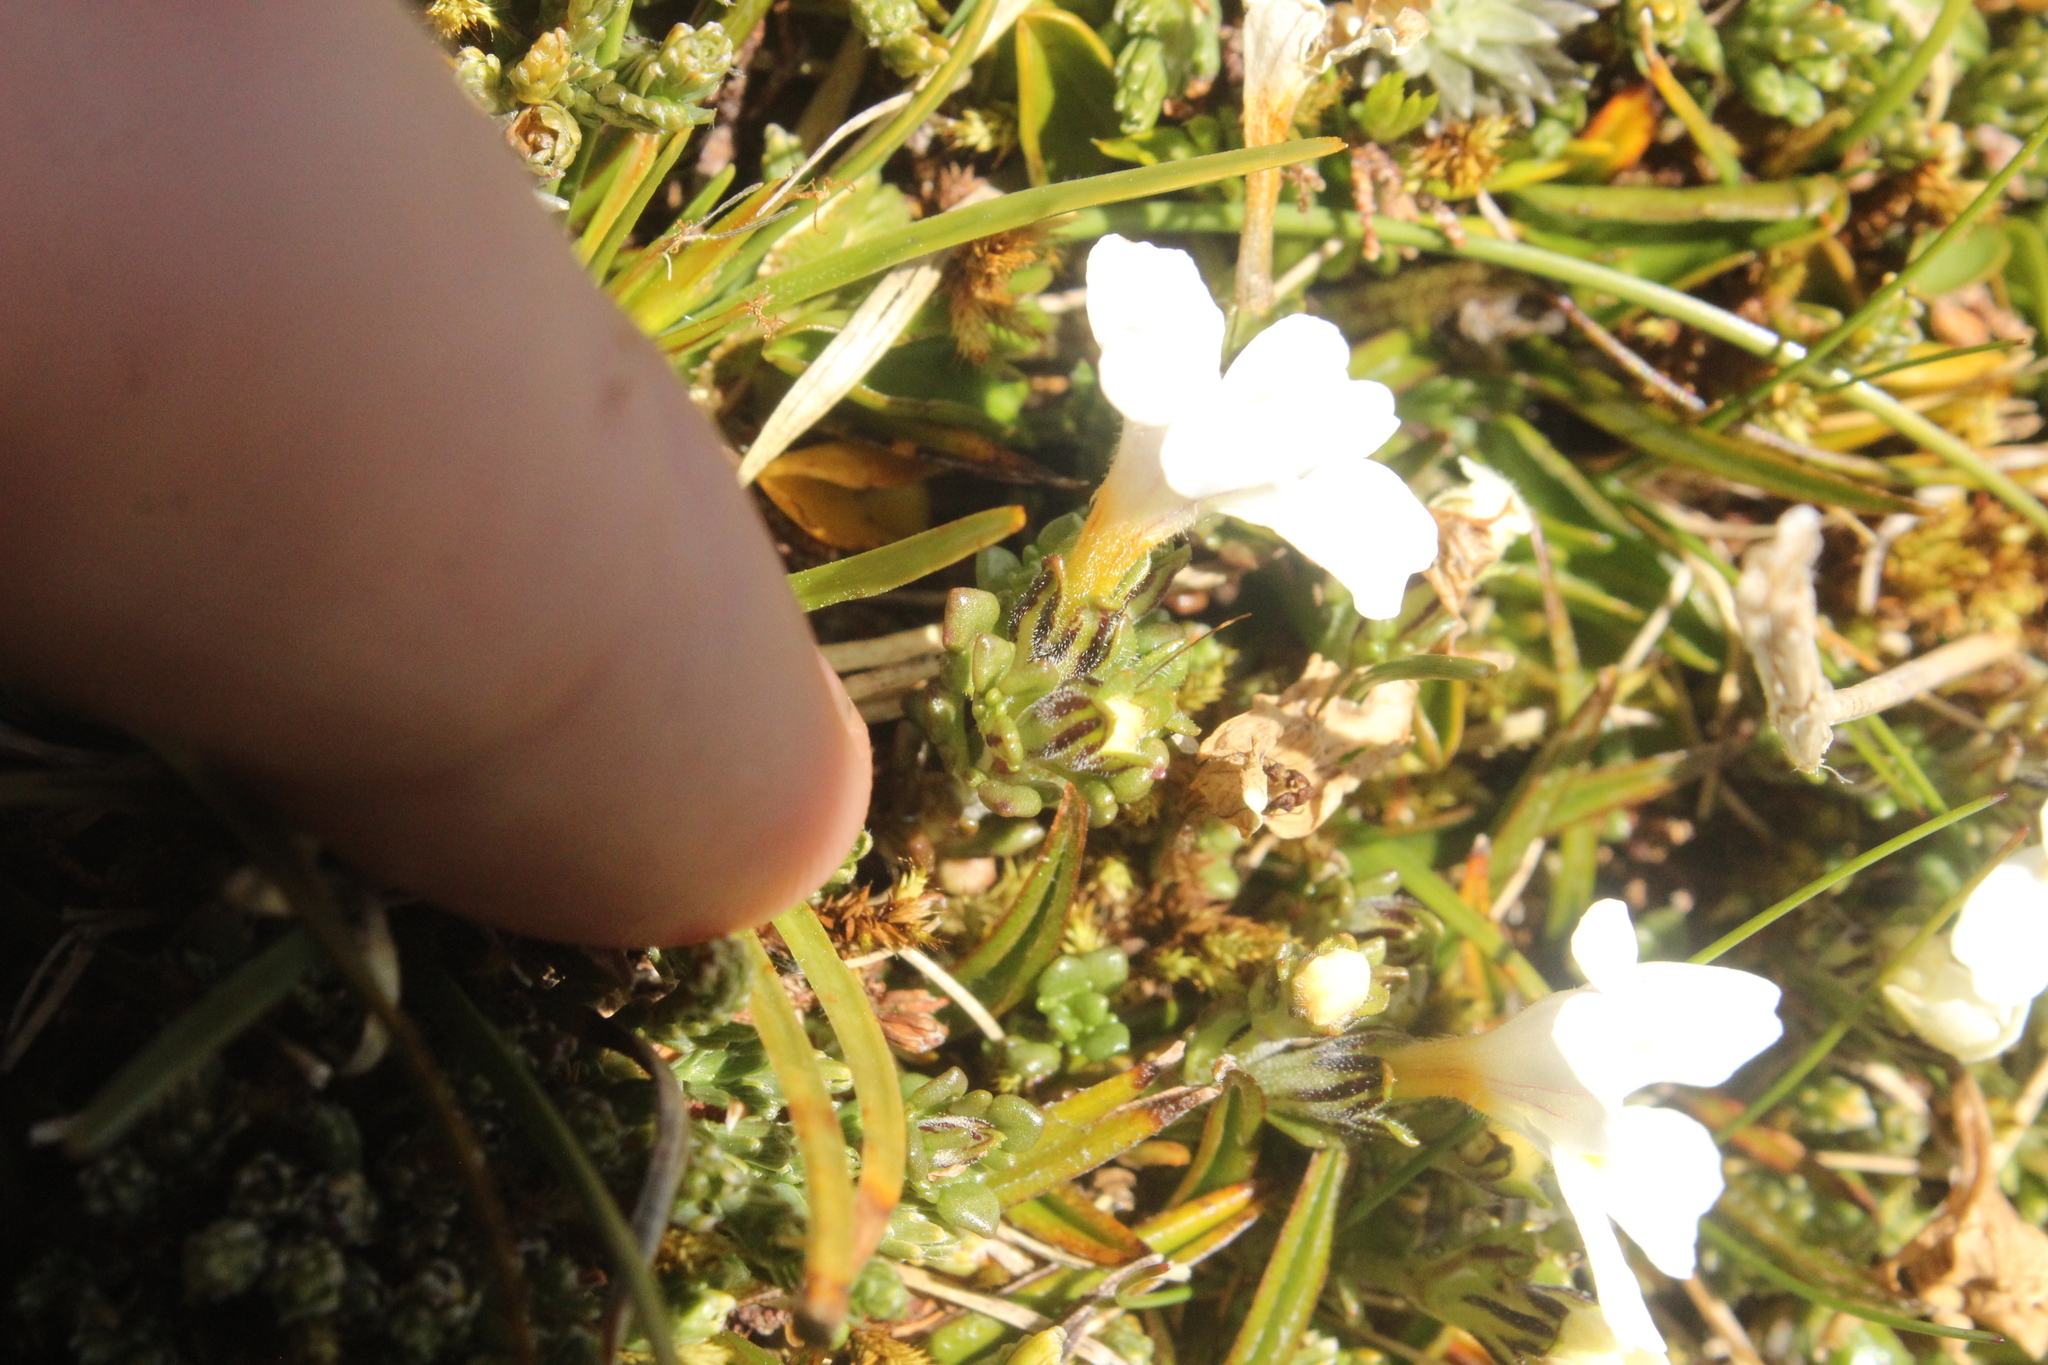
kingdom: Plantae
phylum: Tracheophyta
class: Magnoliopsida
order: Lamiales
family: Orobanchaceae
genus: Euphrasia
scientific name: Euphrasia revoluta
